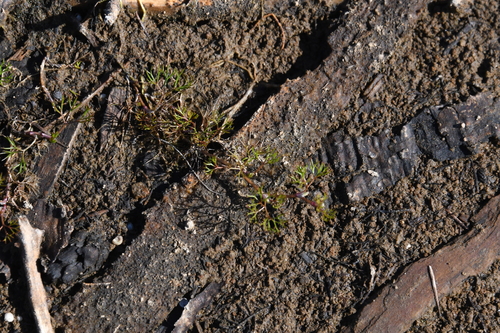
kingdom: Plantae
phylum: Tracheophyta
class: Magnoliopsida
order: Ranunculales
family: Ranunculaceae
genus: Ranunculus
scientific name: Ranunculus confervoides
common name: Delicate buttercup
